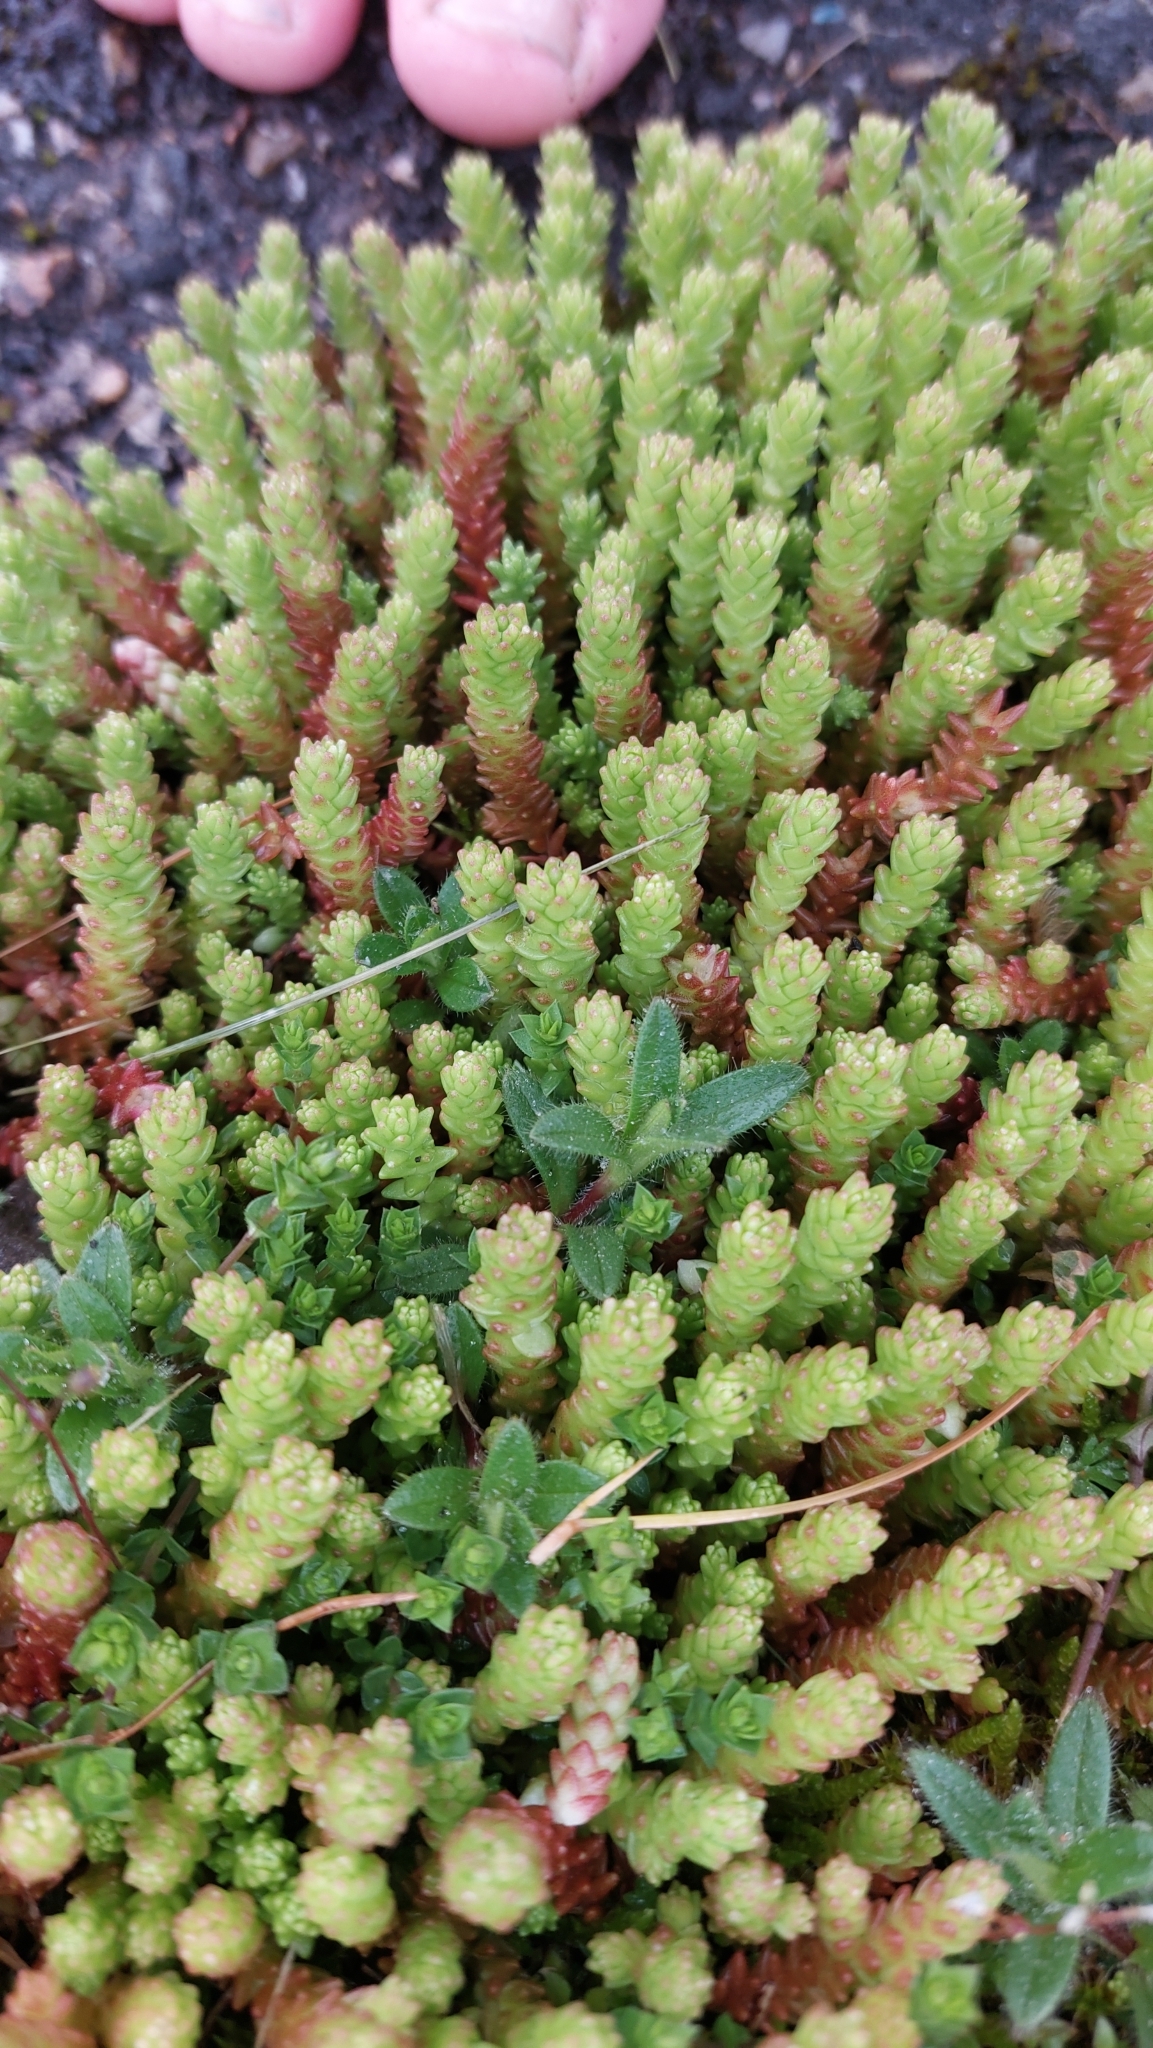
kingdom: Plantae
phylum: Tracheophyta
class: Magnoliopsida
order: Saxifragales
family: Crassulaceae
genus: Sedum
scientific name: Sedum acre
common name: Biting stonecrop
